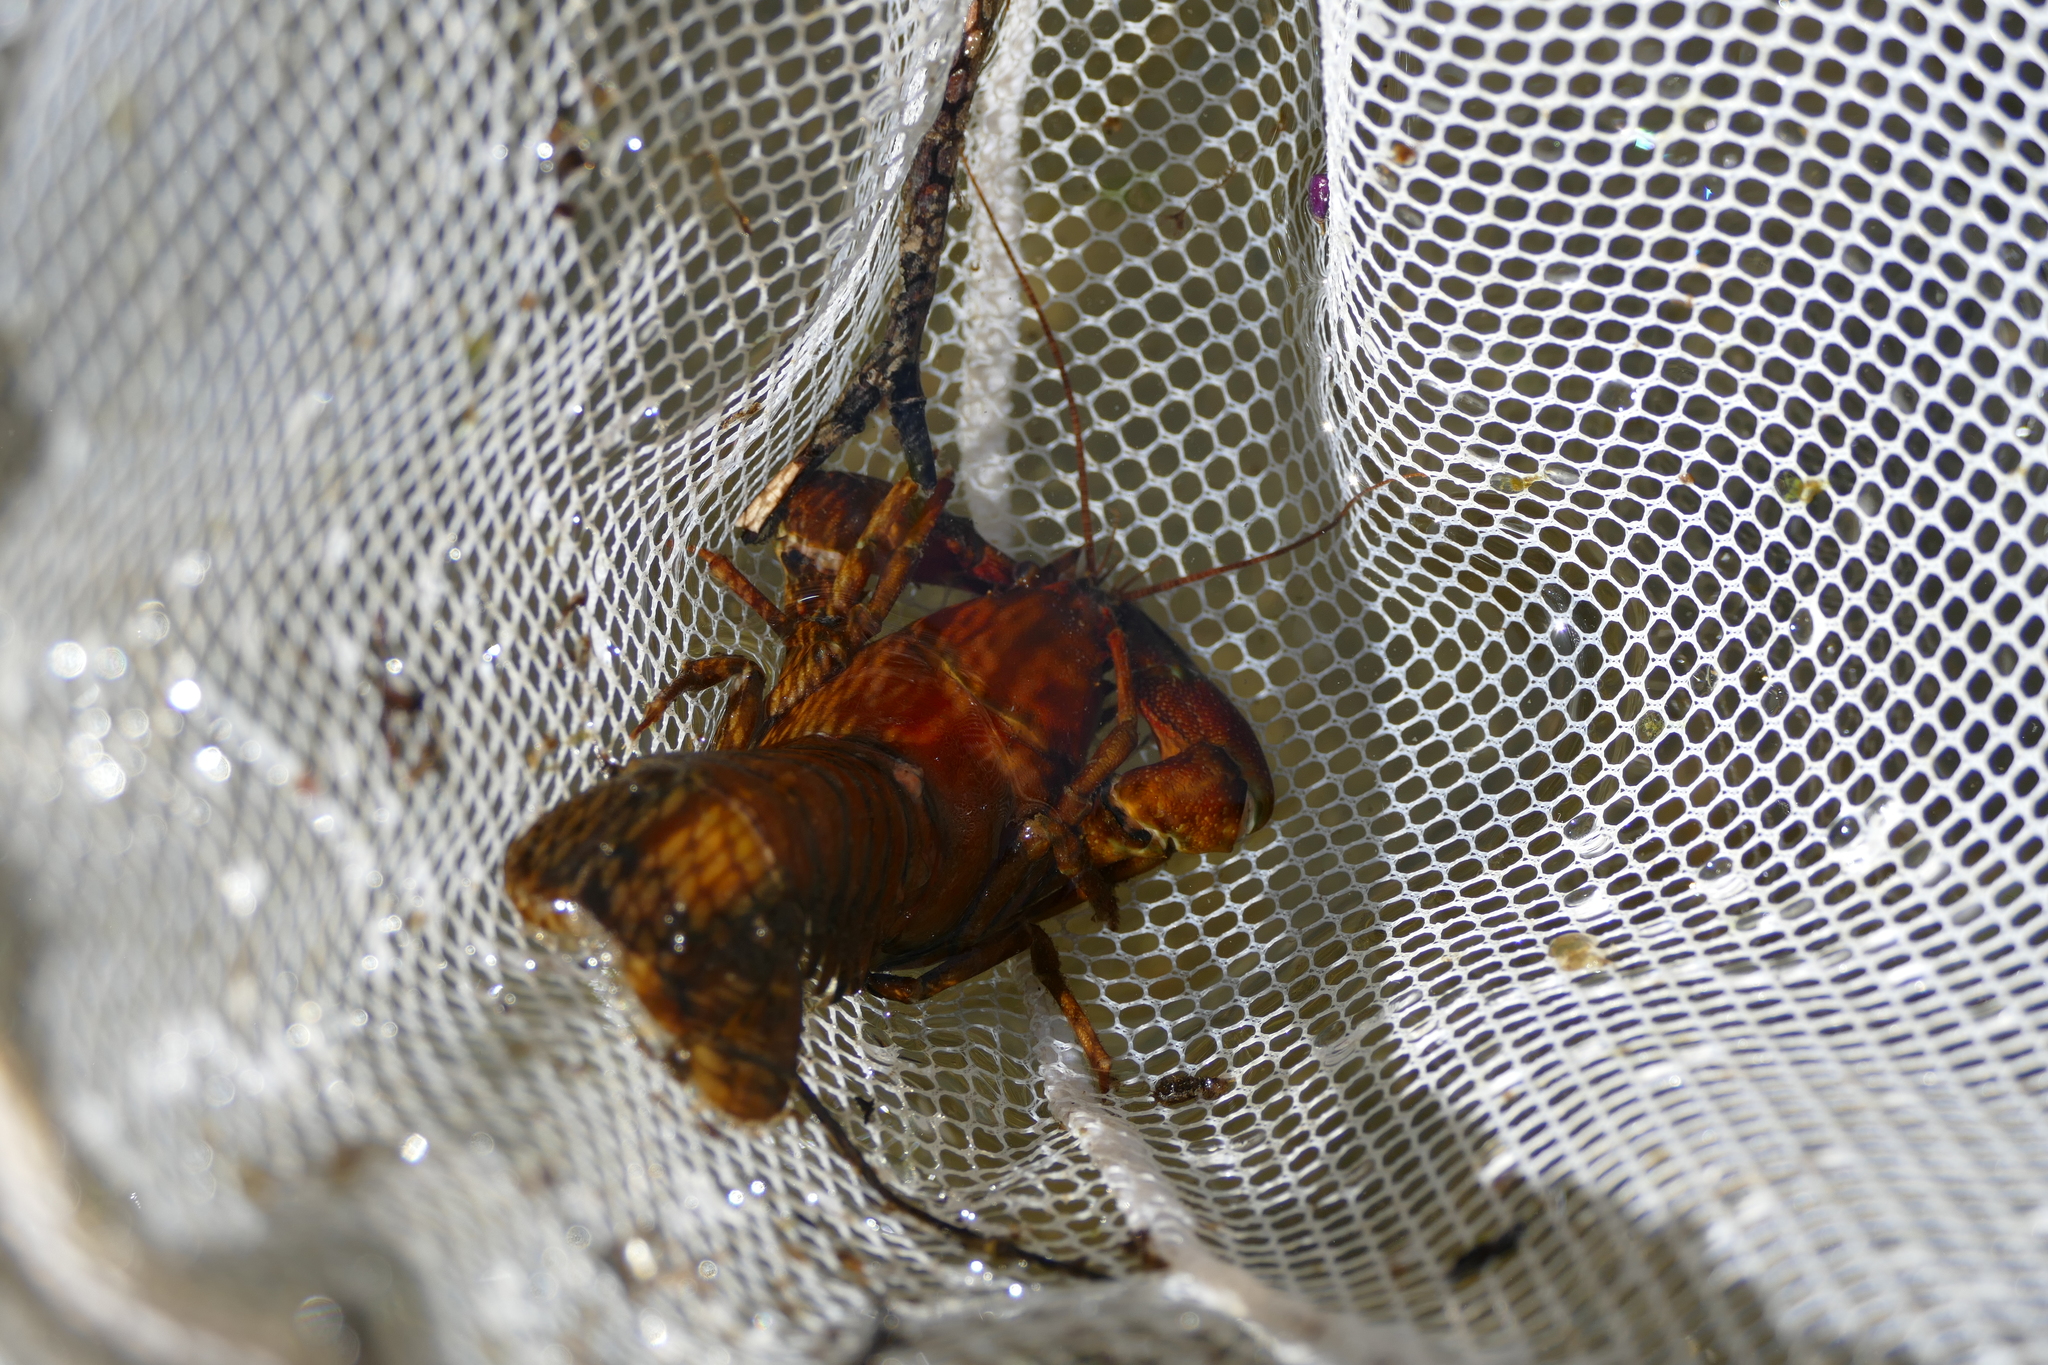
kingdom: Animalia
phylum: Arthropoda
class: Malacostraca
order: Decapoda
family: Astacidae
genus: Pacifastacus
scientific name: Pacifastacus leniusculus
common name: Signal crayfish
